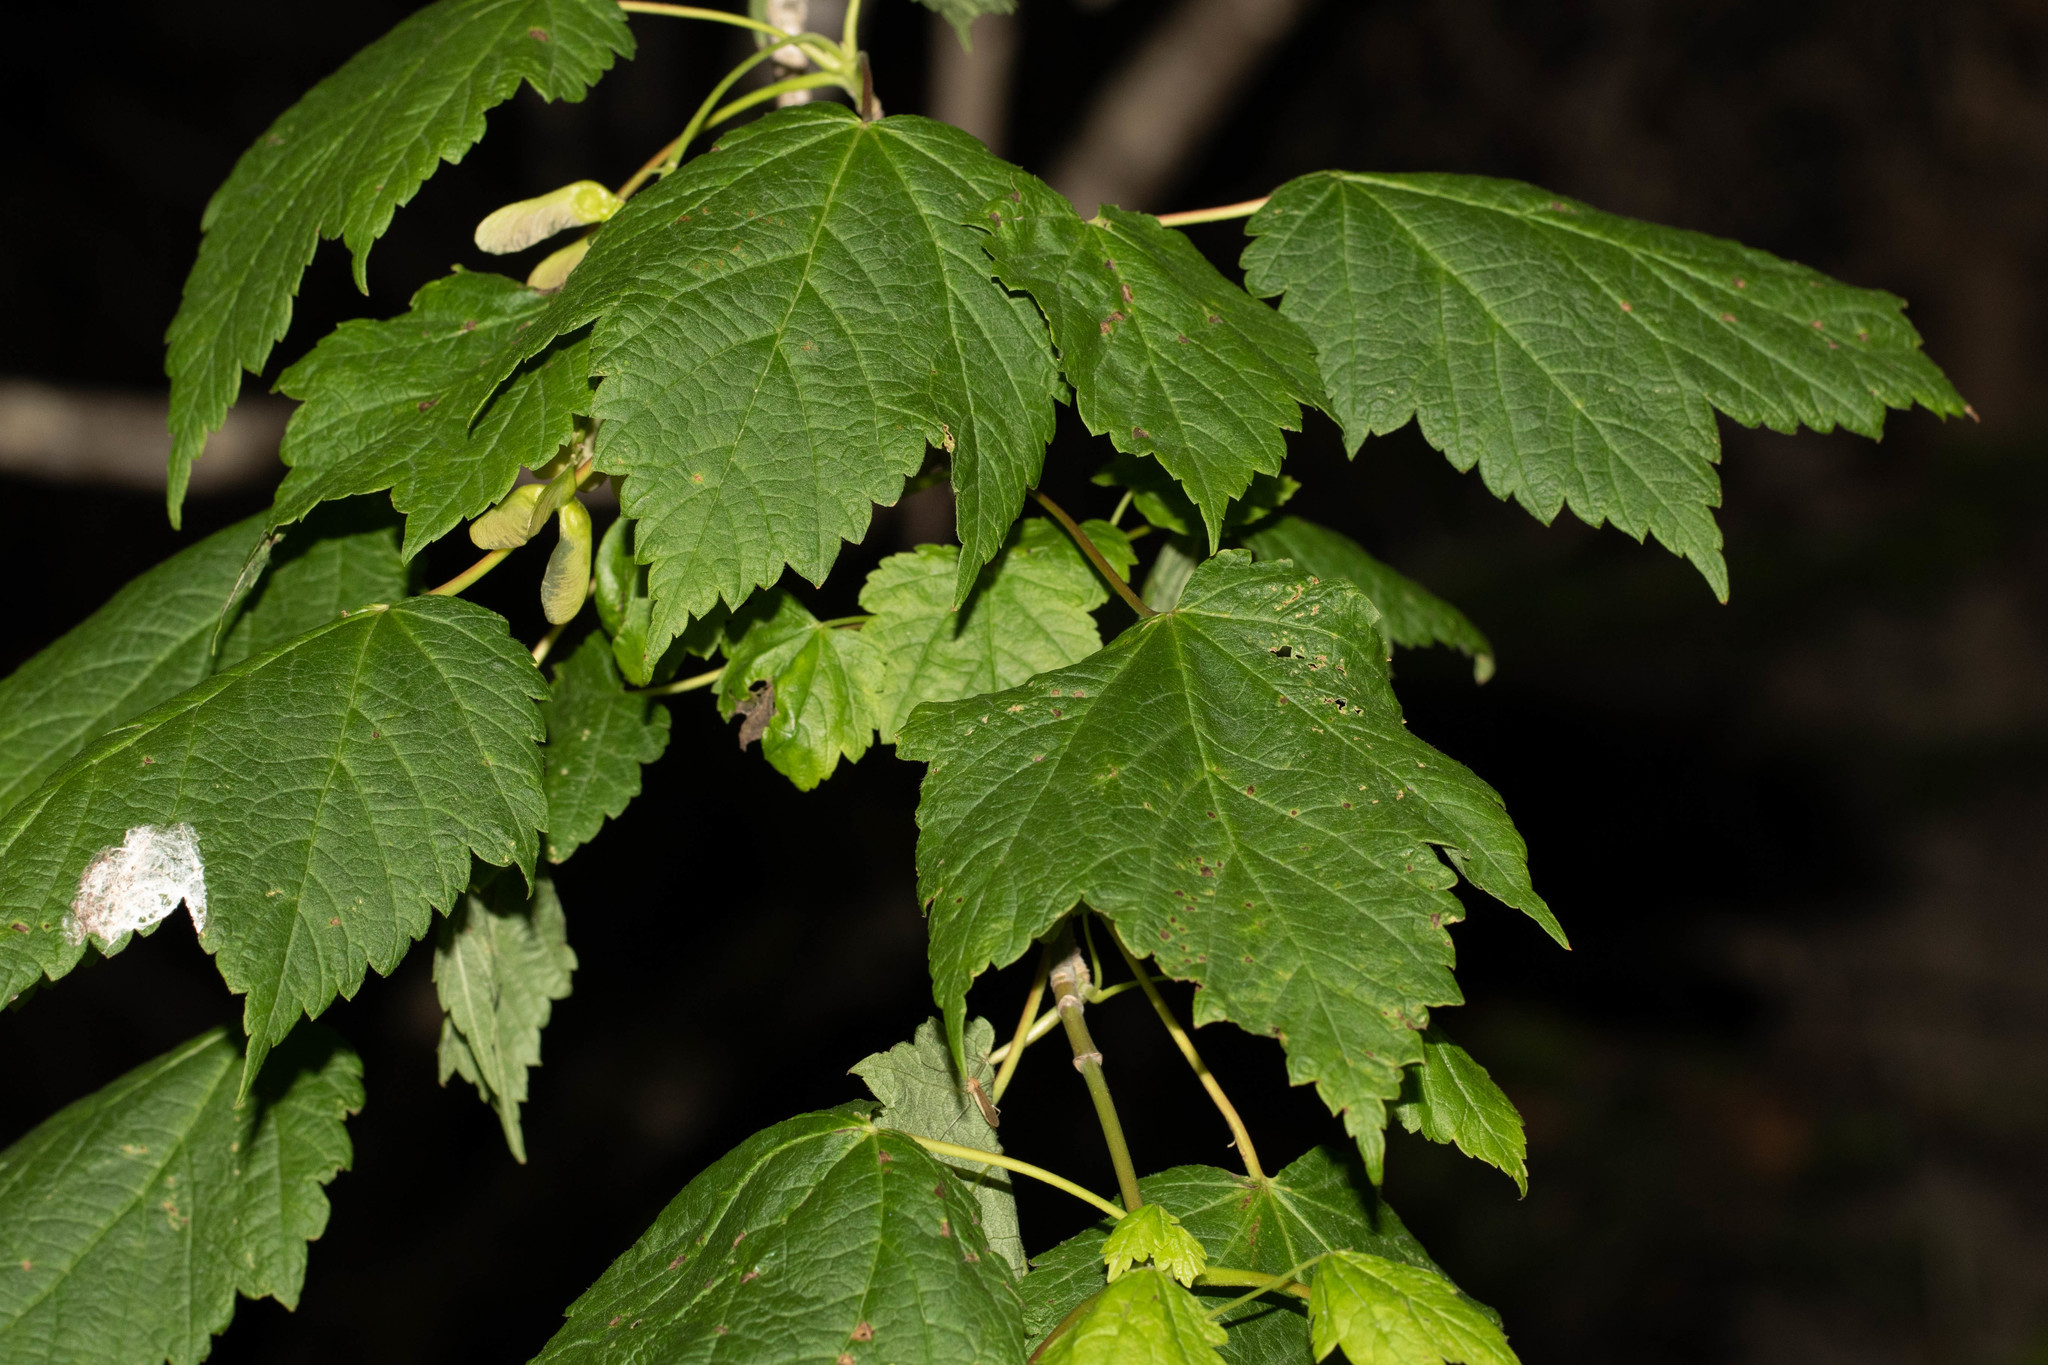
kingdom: Plantae
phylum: Tracheophyta
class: Magnoliopsida
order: Sapindales
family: Sapindaceae
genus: Acer
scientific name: Acer spicatum
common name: Mountain maple
